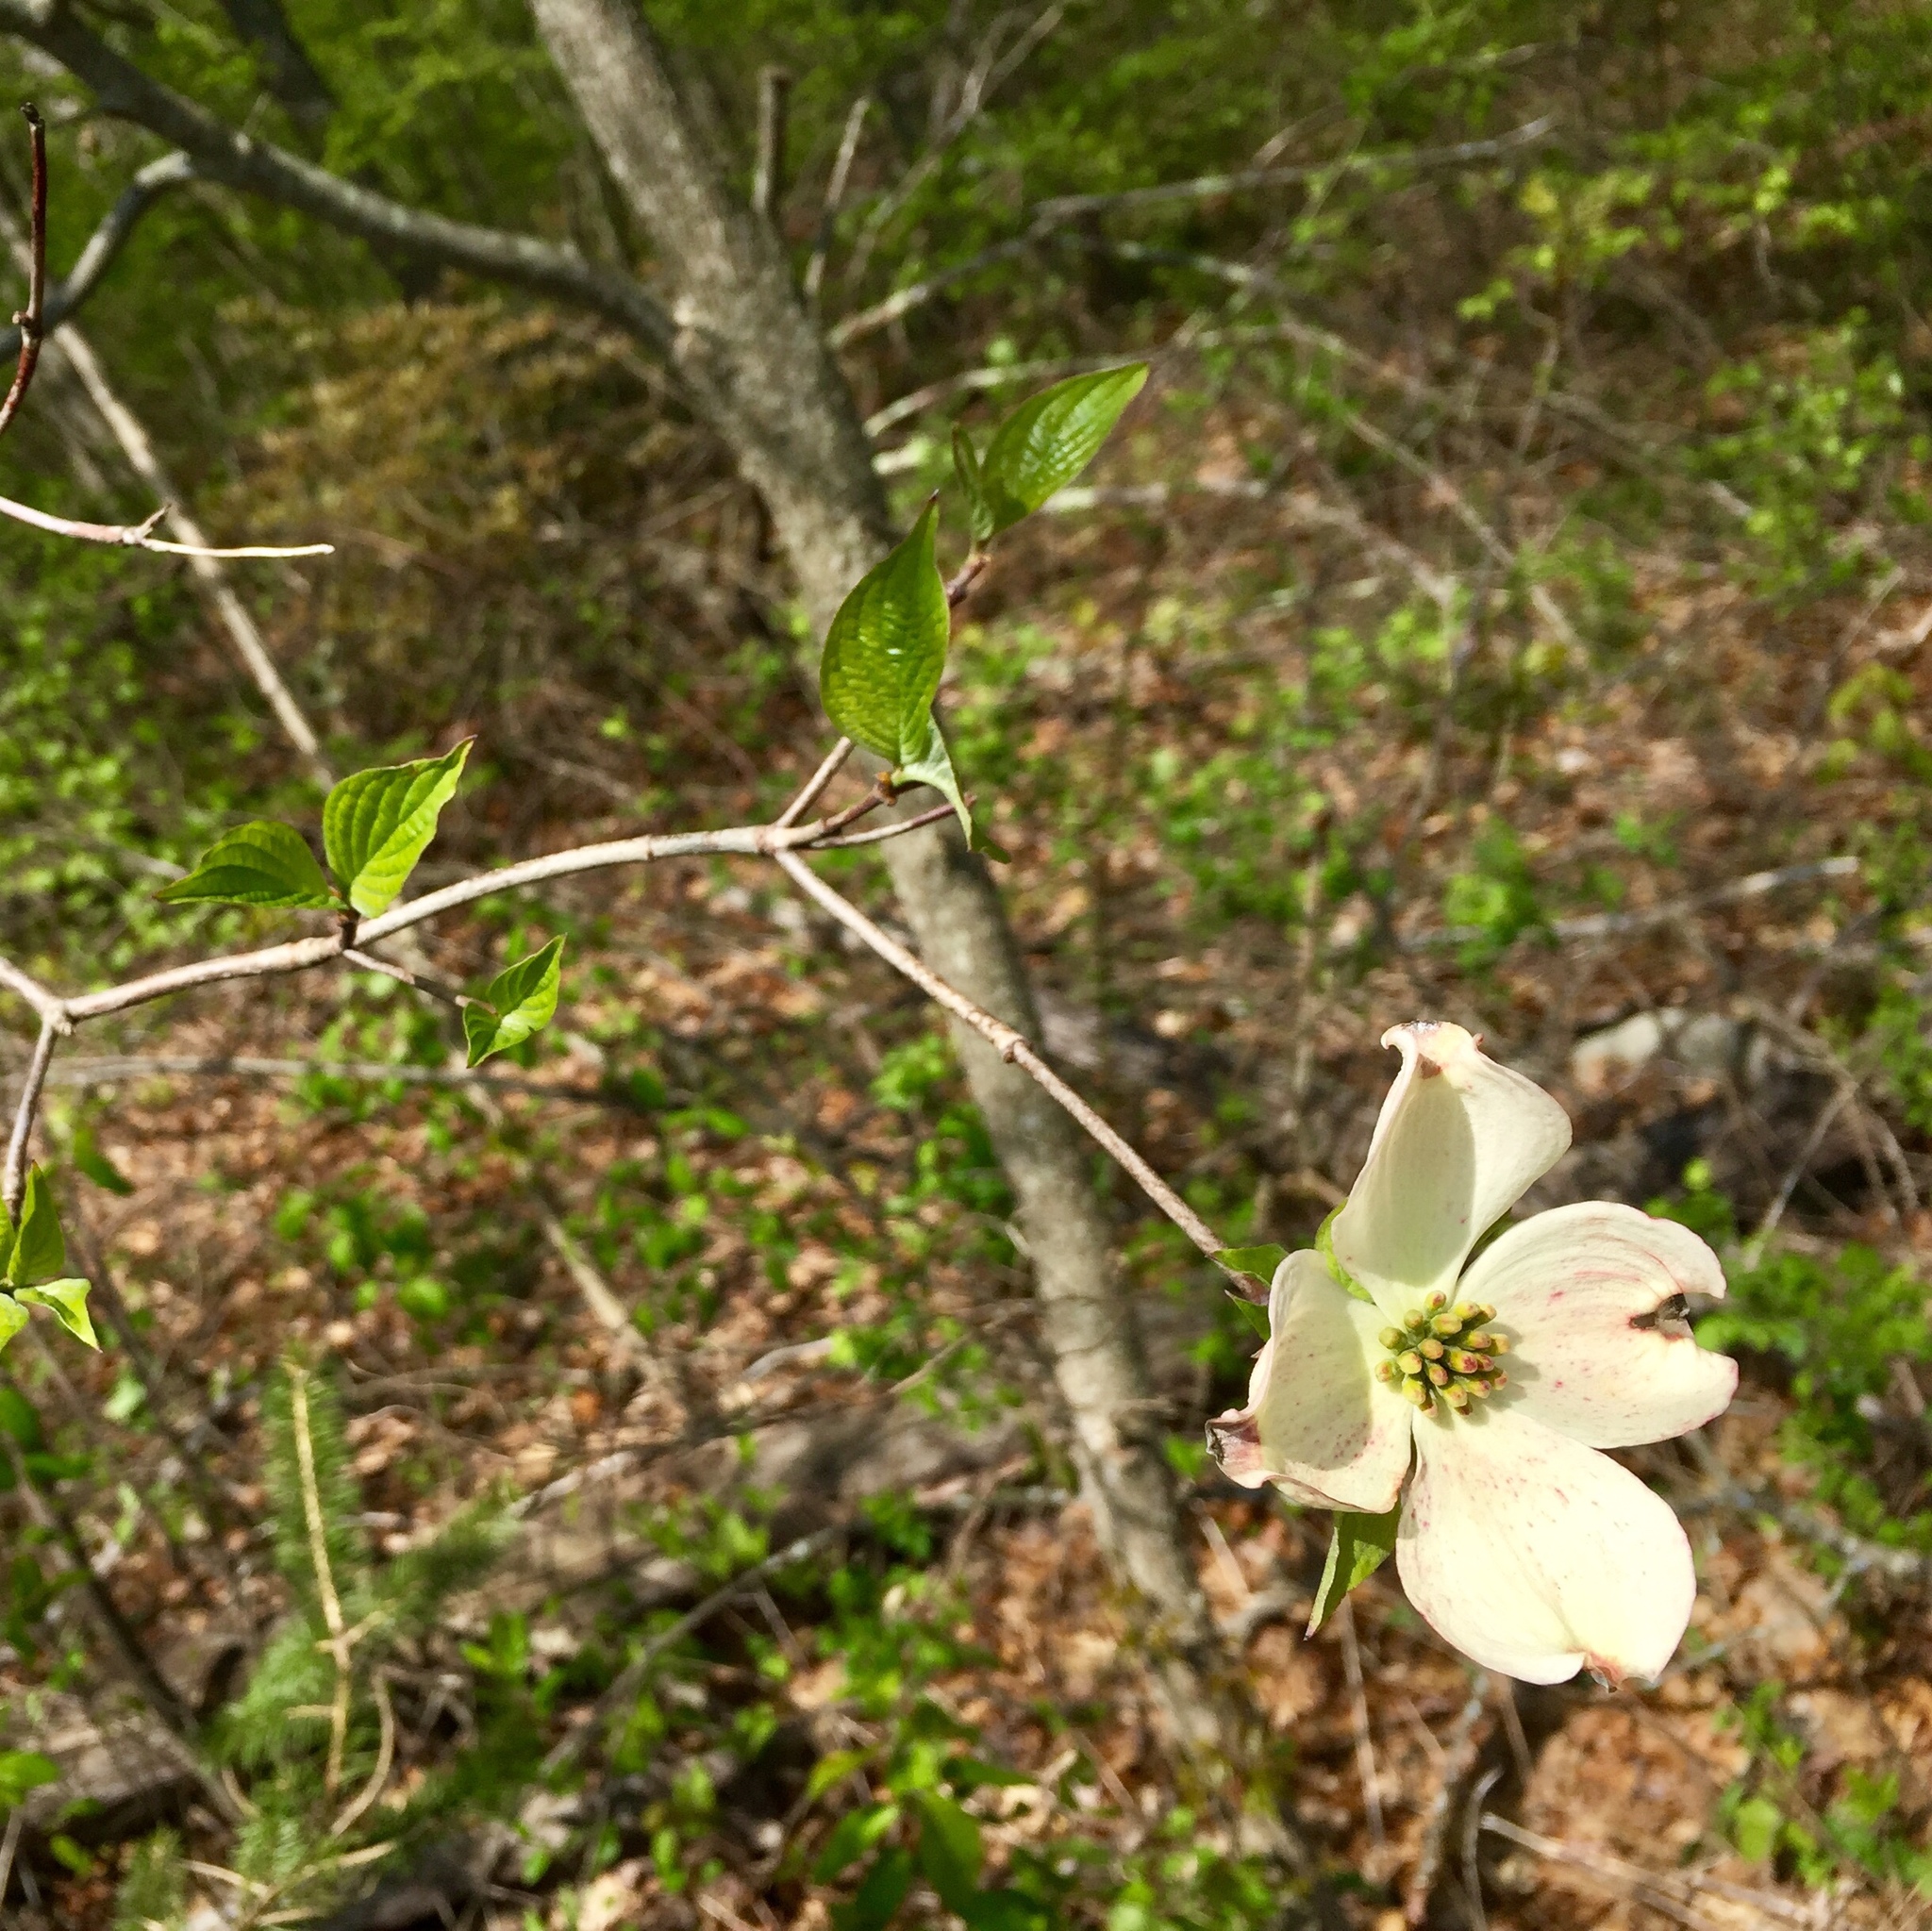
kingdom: Plantae
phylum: Tracheophyta
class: Magnoliopsida
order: Cornales
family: Cornaceae
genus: Cornus
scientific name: Cornus florida
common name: Flowering dogwood
